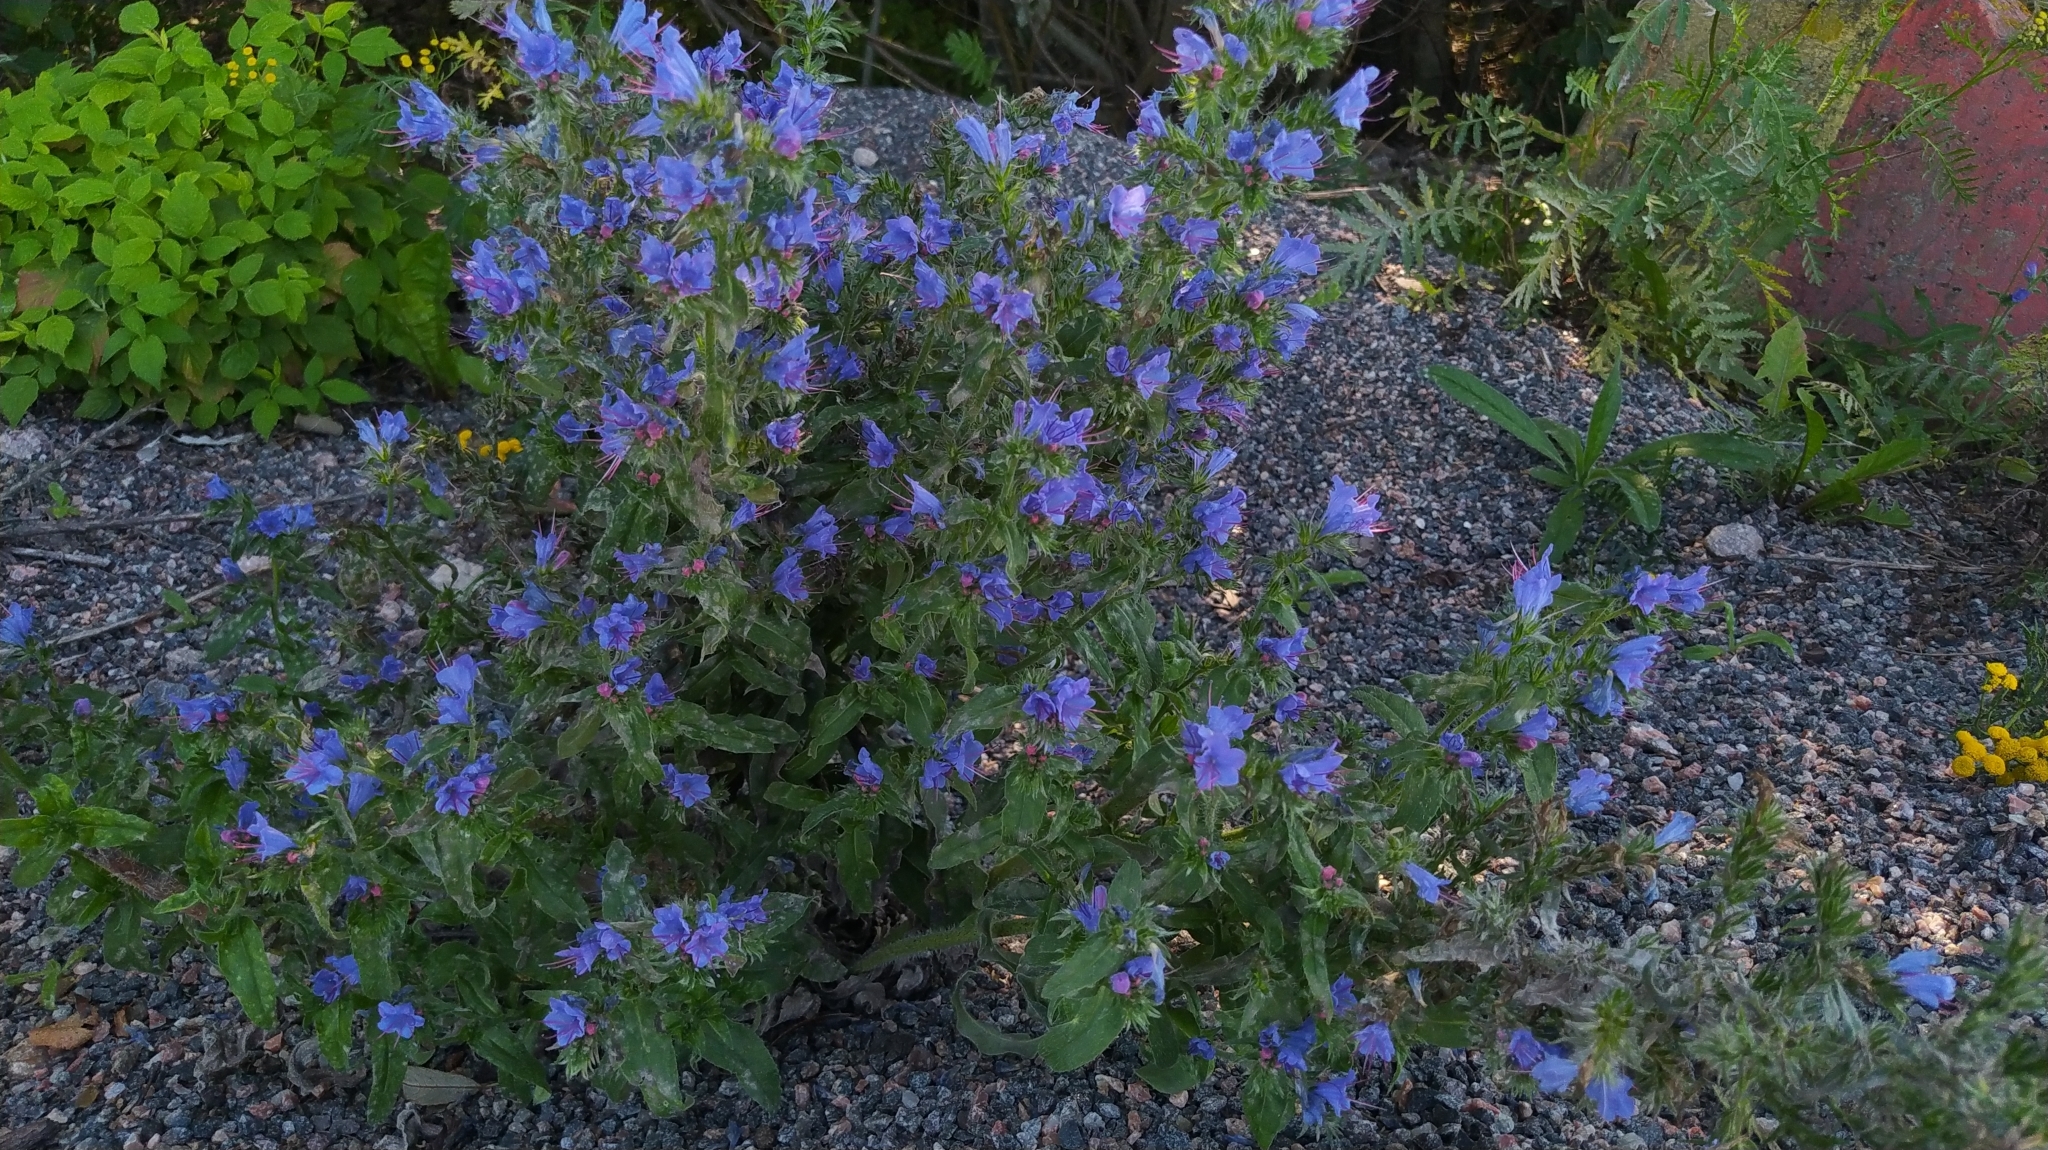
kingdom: Plantae
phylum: Tracheophyta
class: Magnoliopsida
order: Boraginales
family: Boraginaceae
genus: Echium
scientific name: Echium vulgare
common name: Common viper's bugloss
